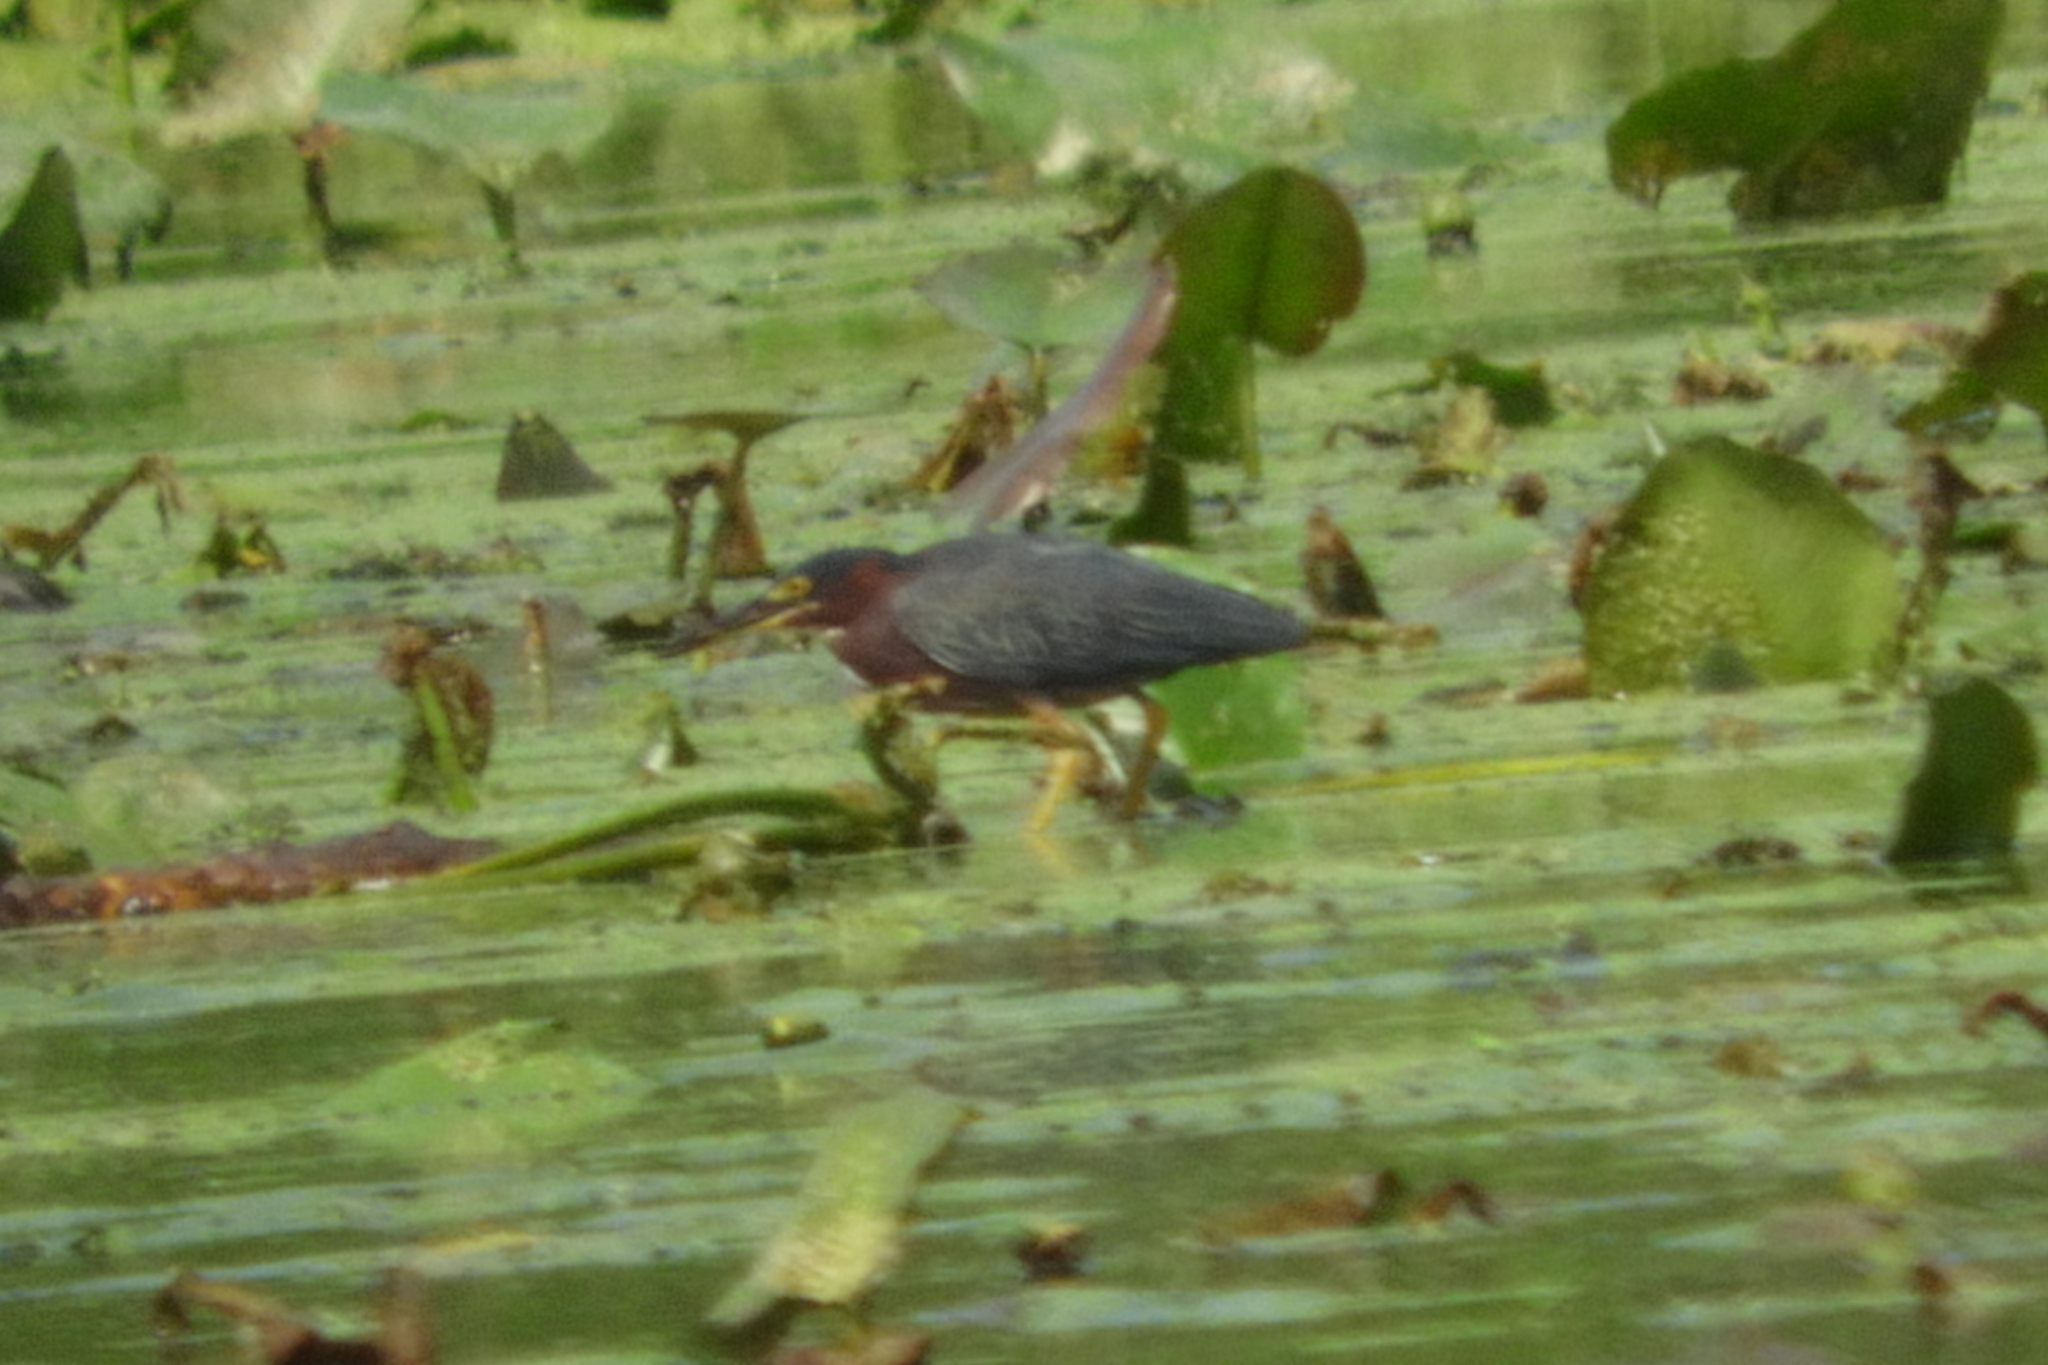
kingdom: Animalia
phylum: Chordata
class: Aves
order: Pelecaniformes
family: Ardeidae
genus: Butorides
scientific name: Butorides virescens
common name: Green heron
